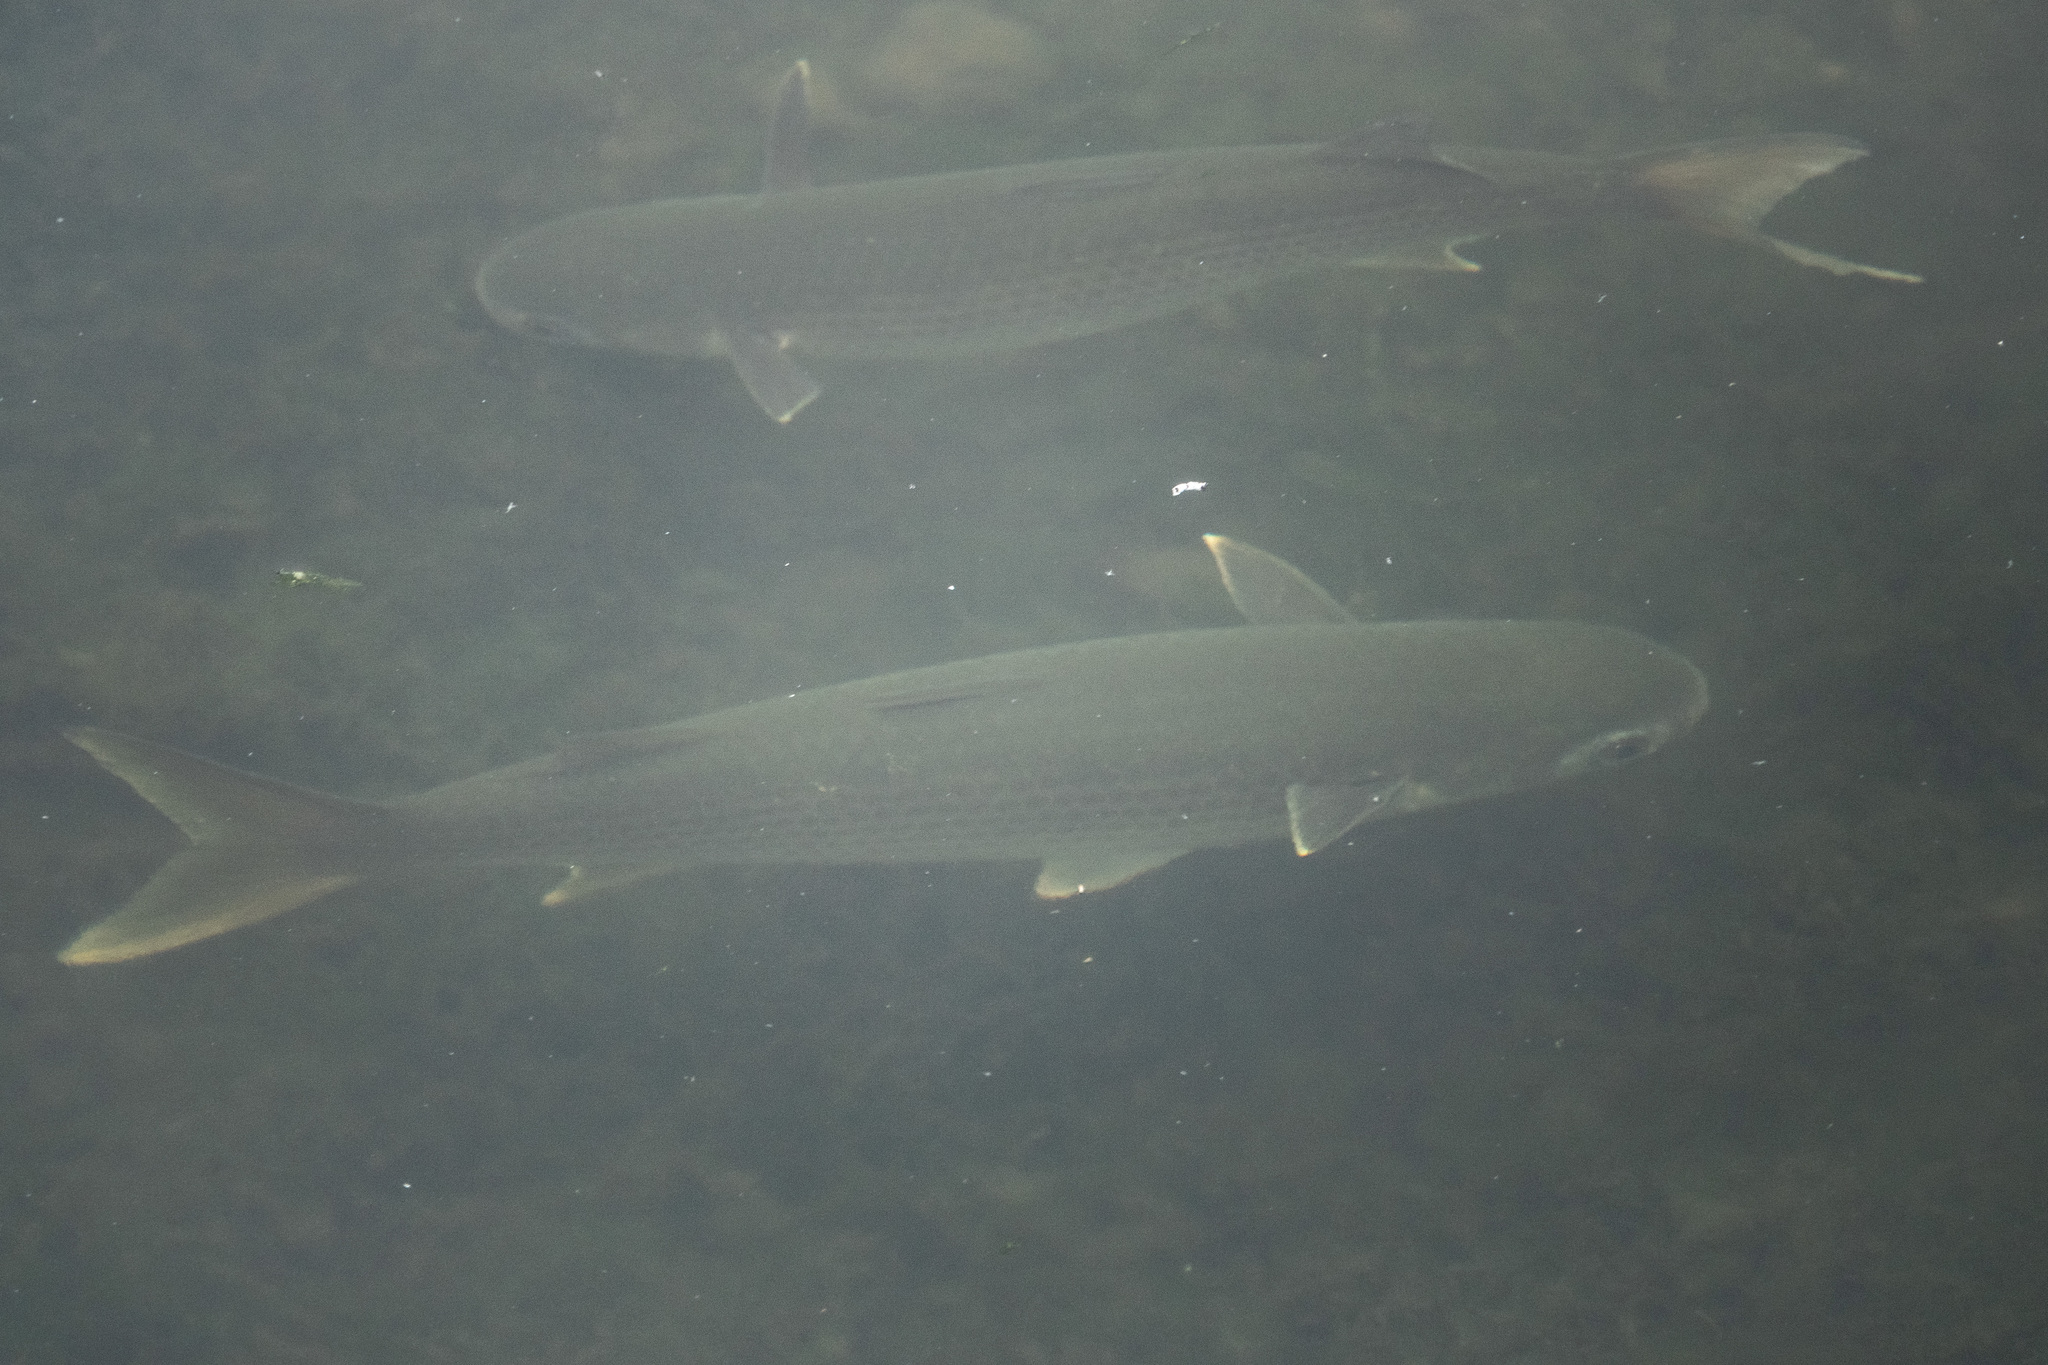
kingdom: Animalia
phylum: Chordata
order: Mugiliformes
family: Mugilidae
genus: Mugil
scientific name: Mugil cephalus
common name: Grey mullet
